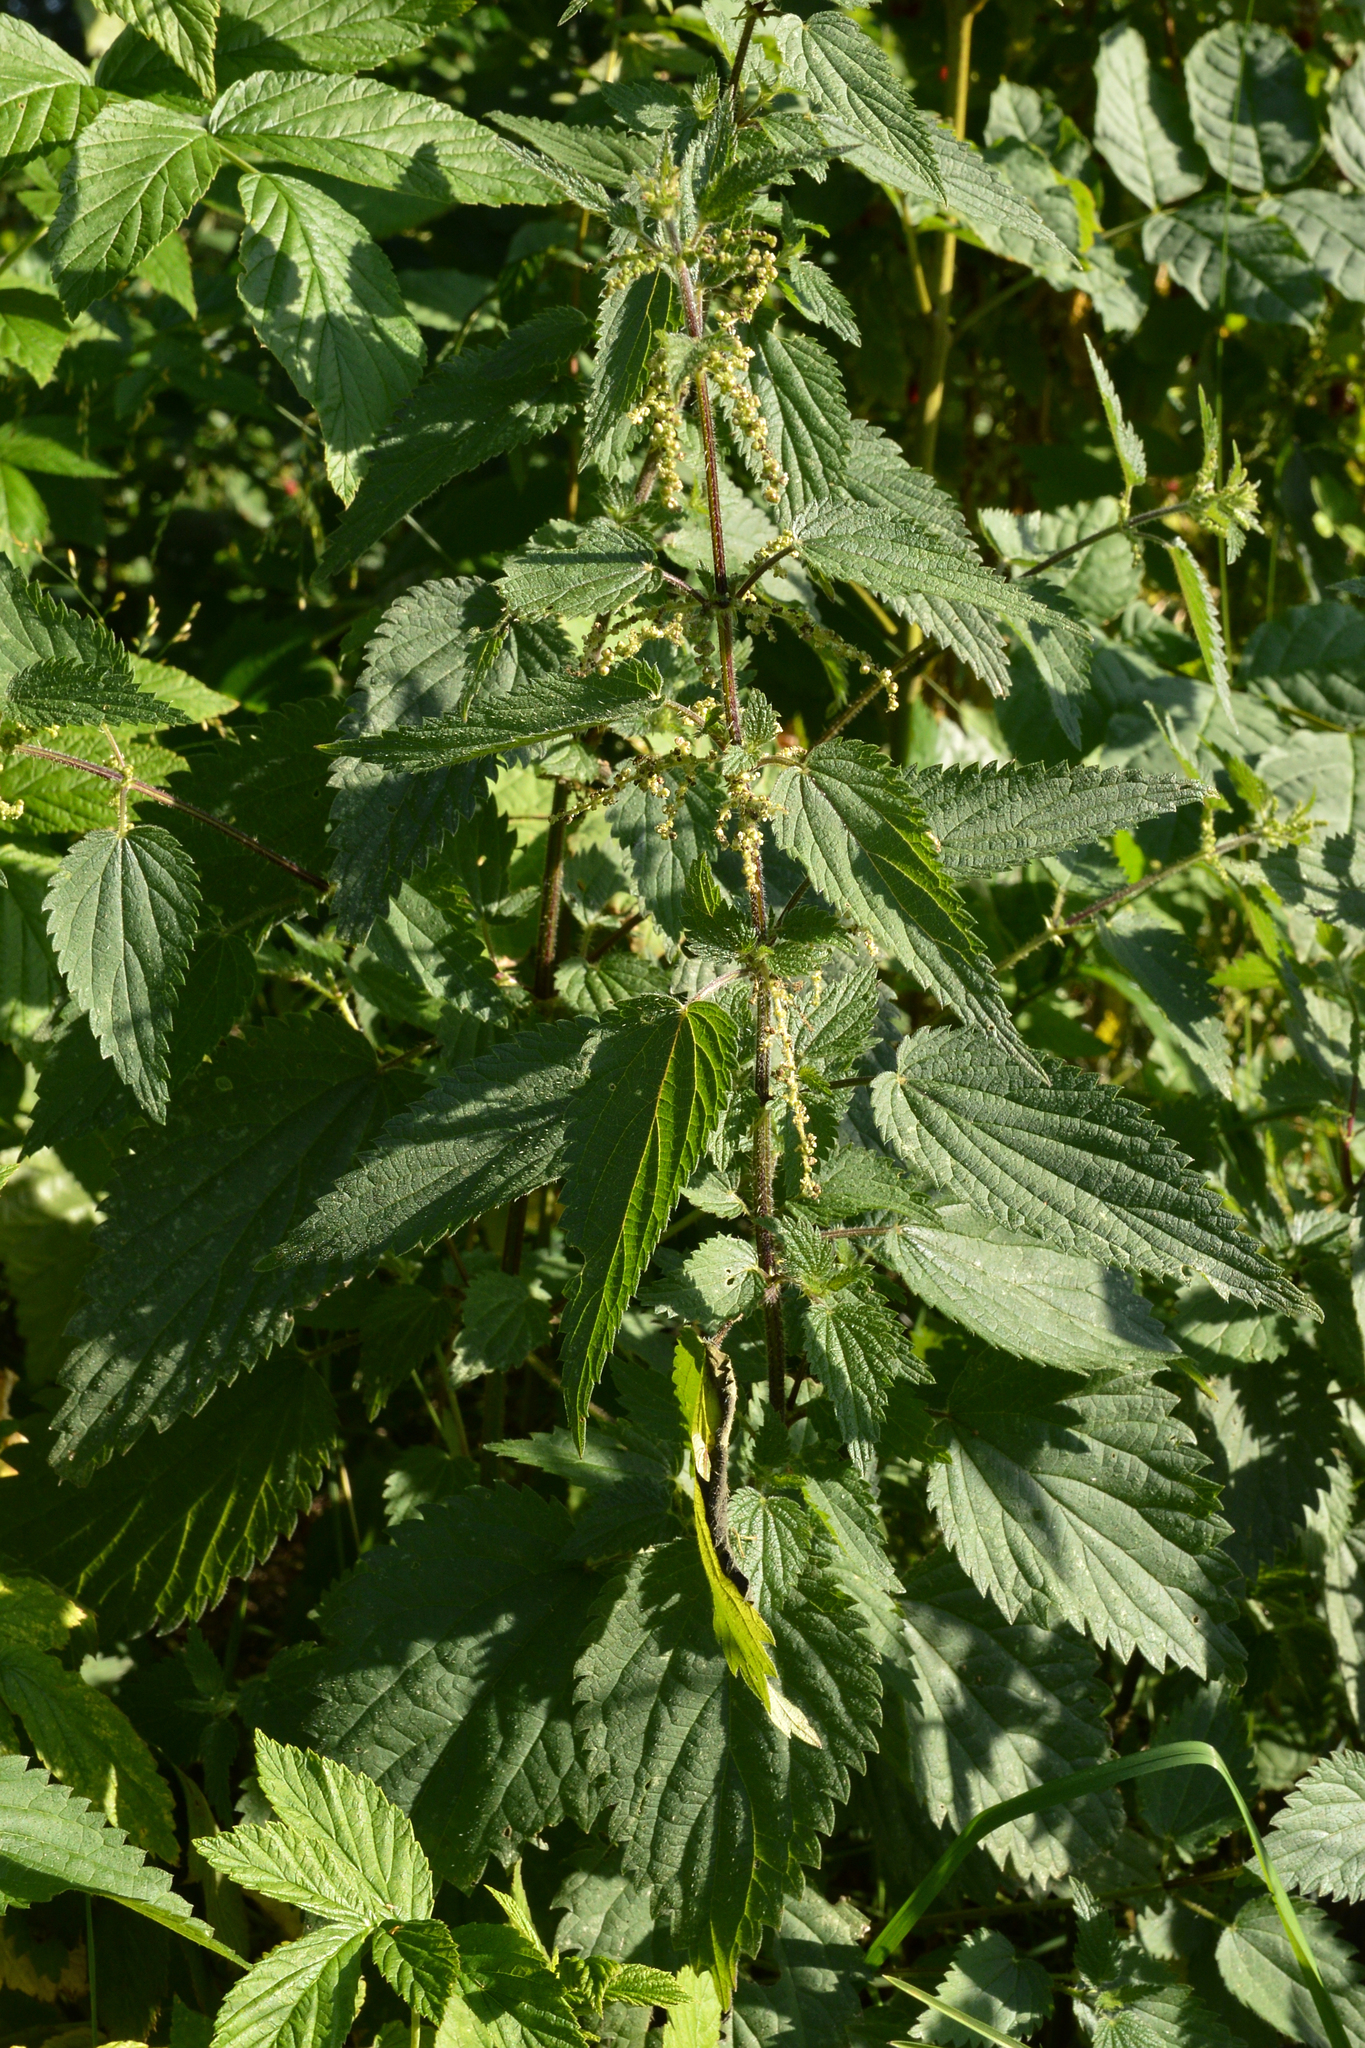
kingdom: Plantae
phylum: Tracheophyta
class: Magnoliopsida
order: Rosales
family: Urticaceae
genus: Urtica
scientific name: Urtica dioica
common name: Common nettle
